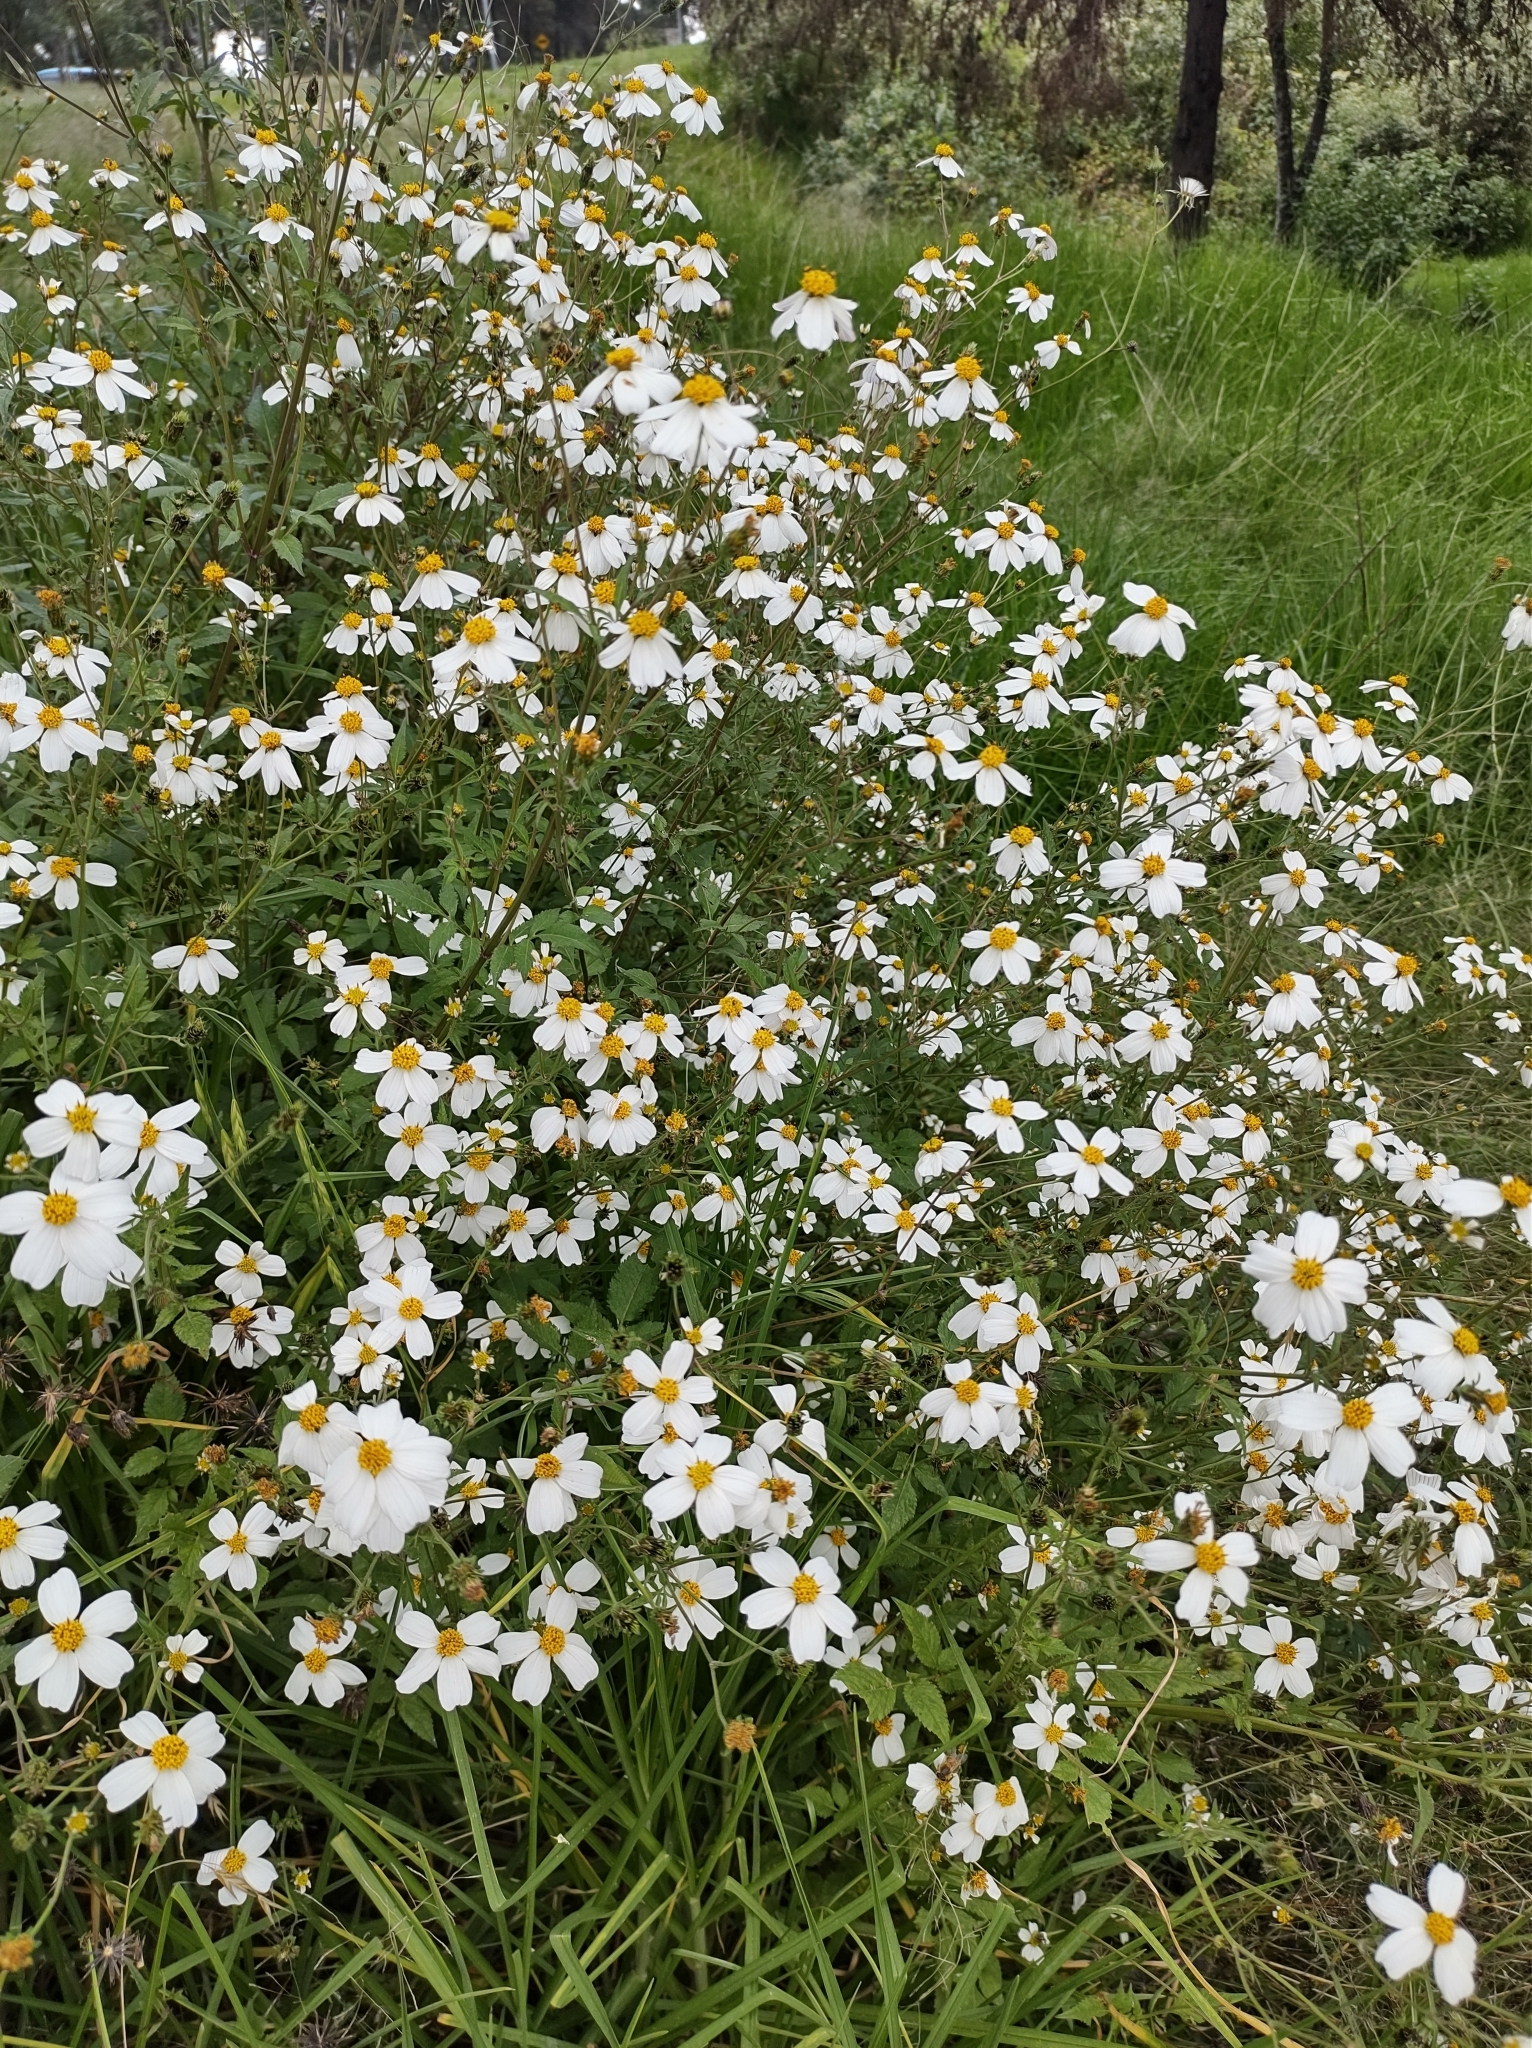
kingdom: Plantae
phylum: Tracheophyta
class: Magnoliopsida
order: Asterales
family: Asteraceae
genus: Bidens
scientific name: Bidens odorata
